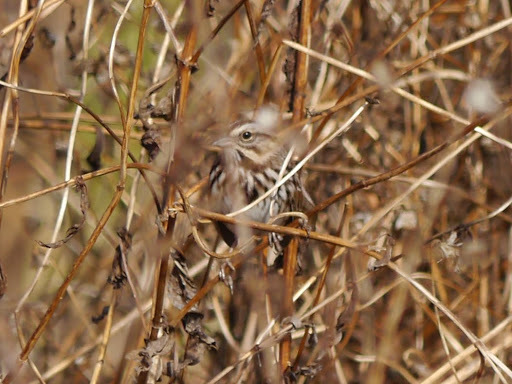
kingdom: Animalia
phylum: Chordata
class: Aves
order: Passeriformes
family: Passerellidae
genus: Melospiza
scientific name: Melospiza melodia
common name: Song sparrow
